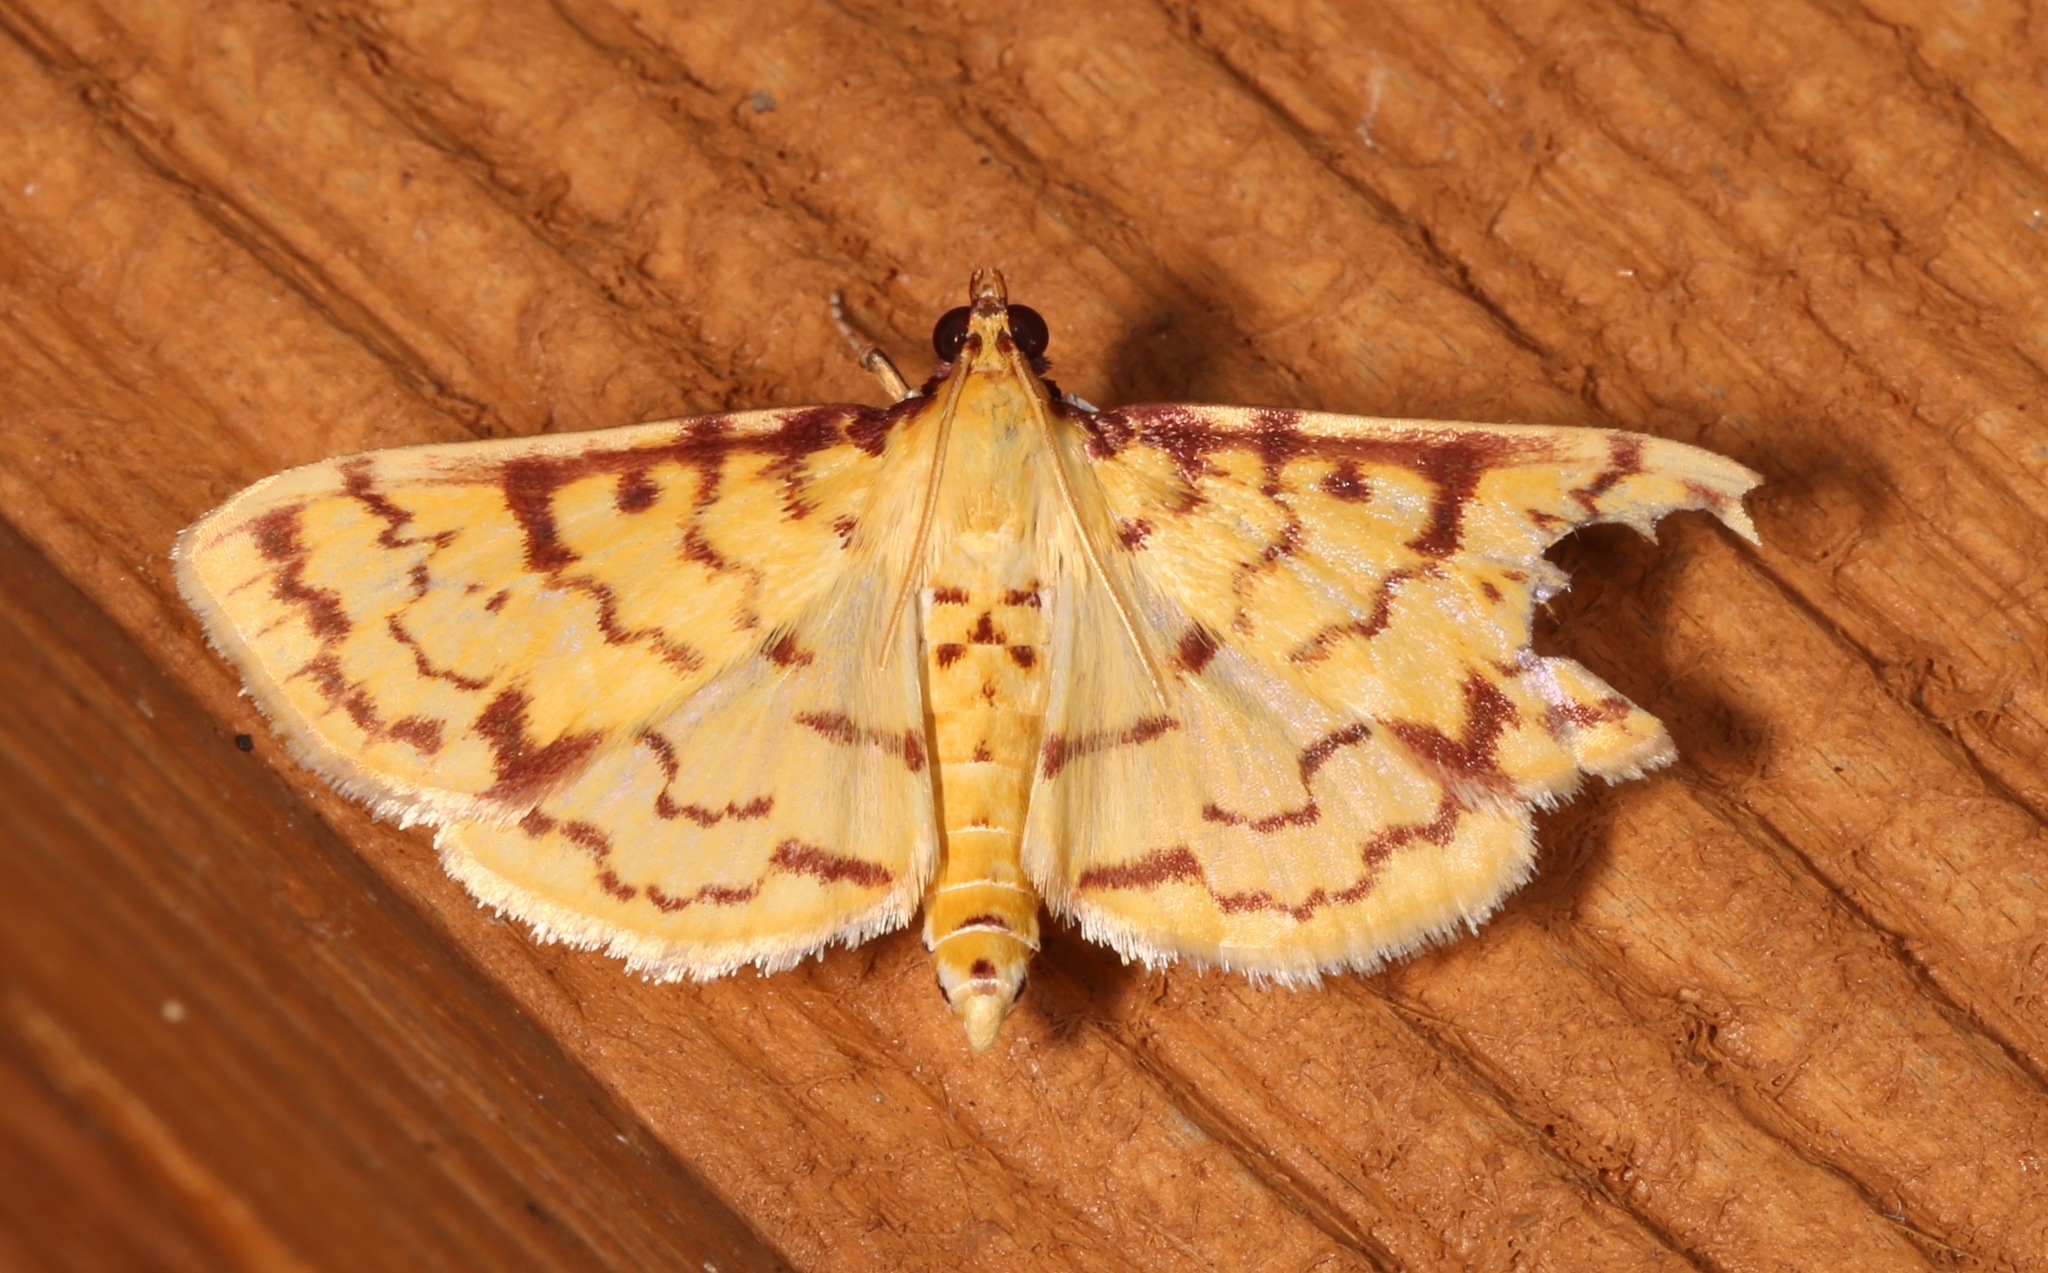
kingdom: Animalia
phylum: Arthropoda
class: Insecta
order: Lepidoptera
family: Crambidae
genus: Polygrammodes
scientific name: Polygrammodes flavidalis
